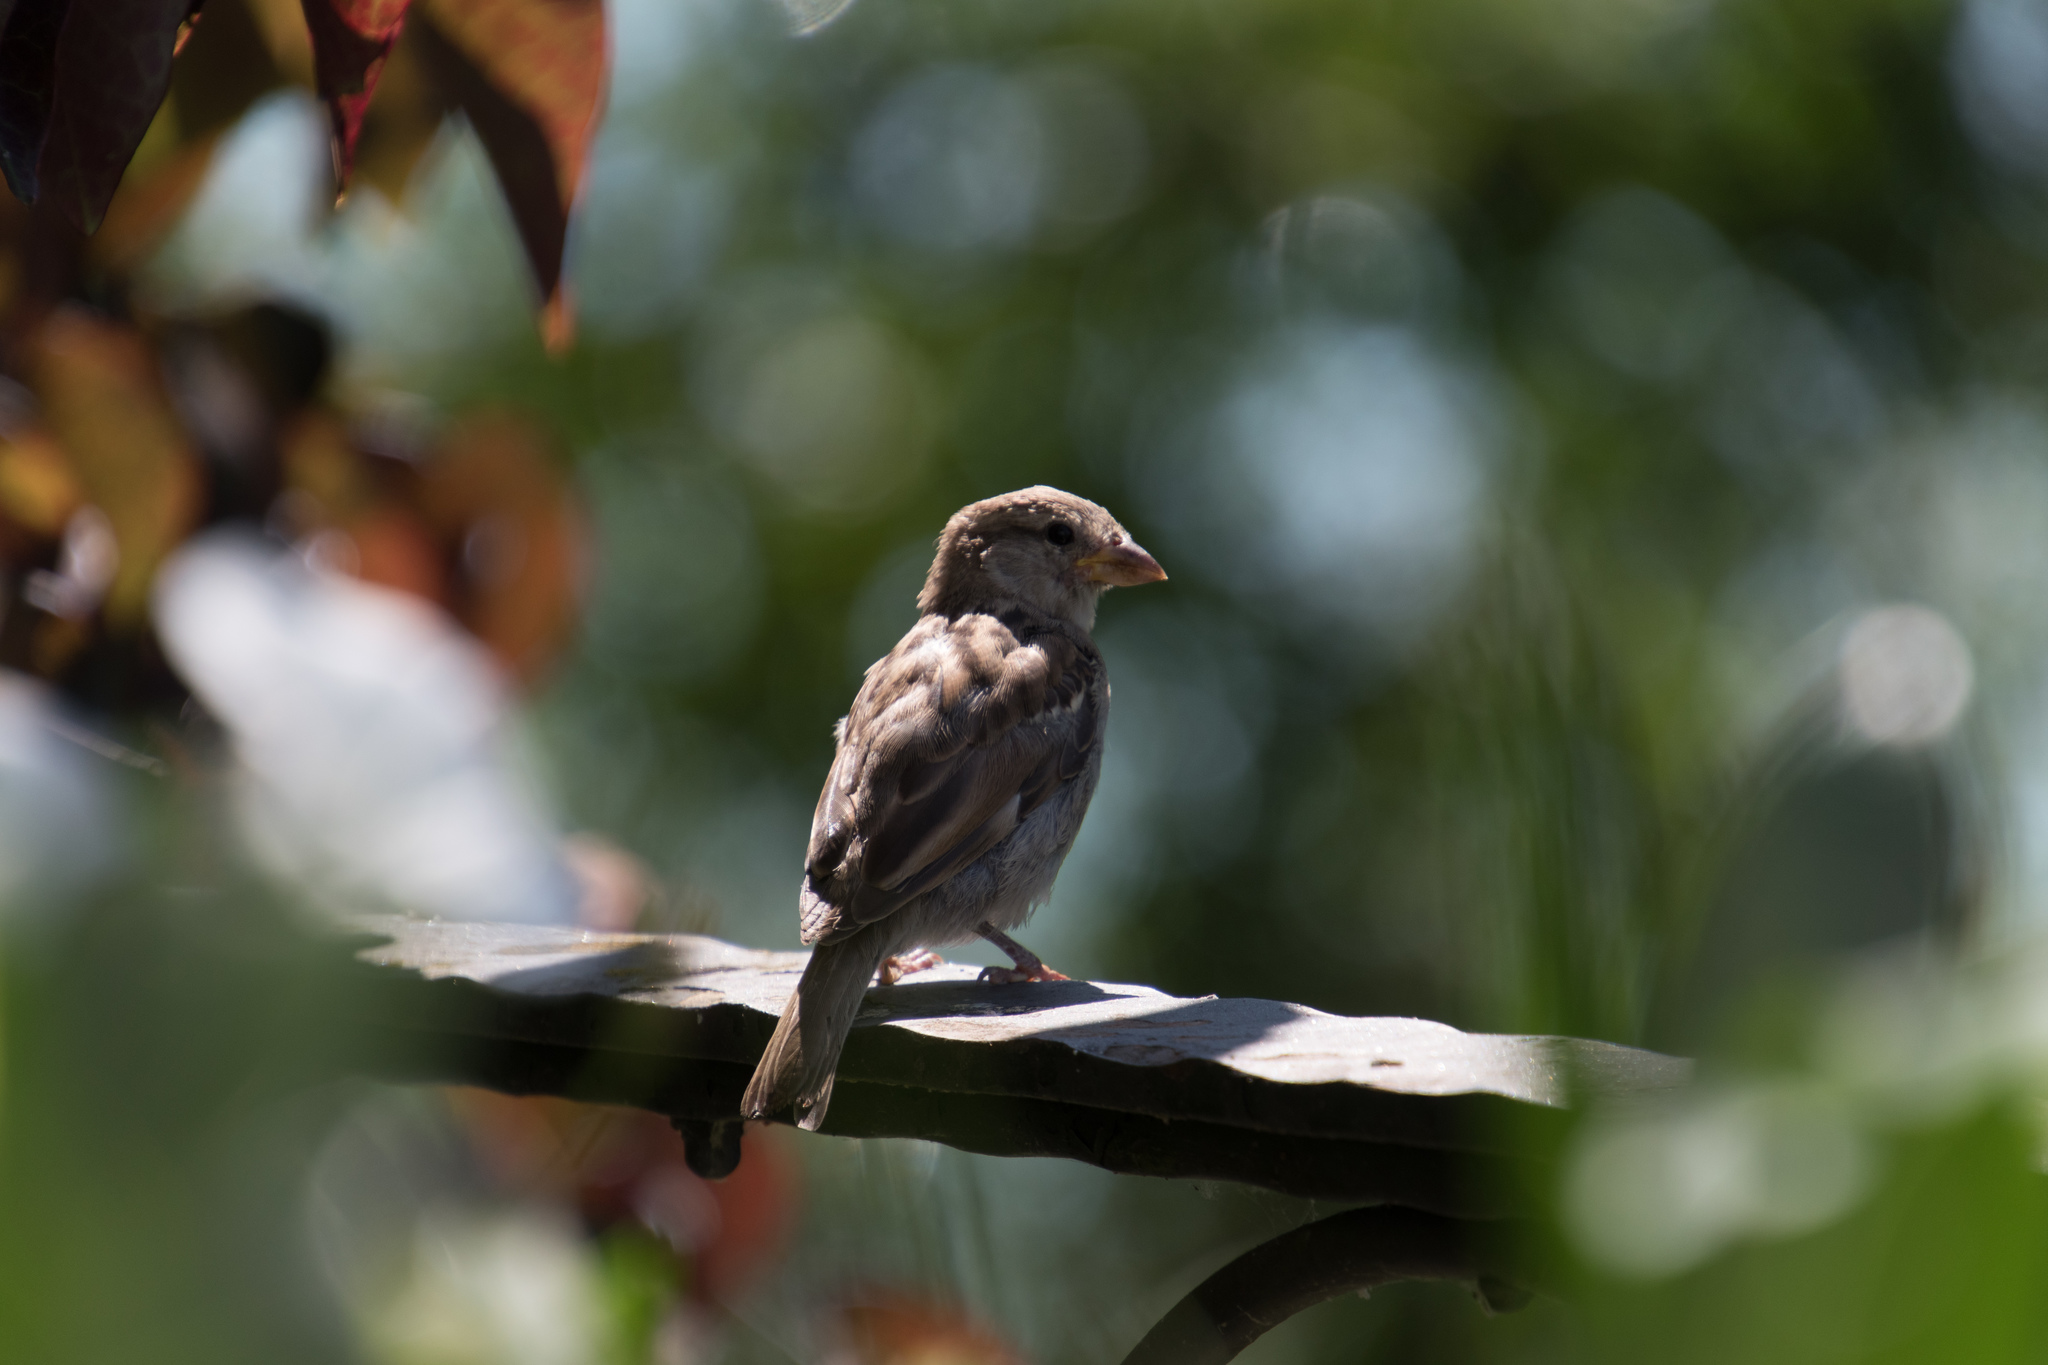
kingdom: Animalia
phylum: Chordata
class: Aves
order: Passeriformes
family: Passeridae
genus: Passer
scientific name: Passer domesticus
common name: House sparrow
